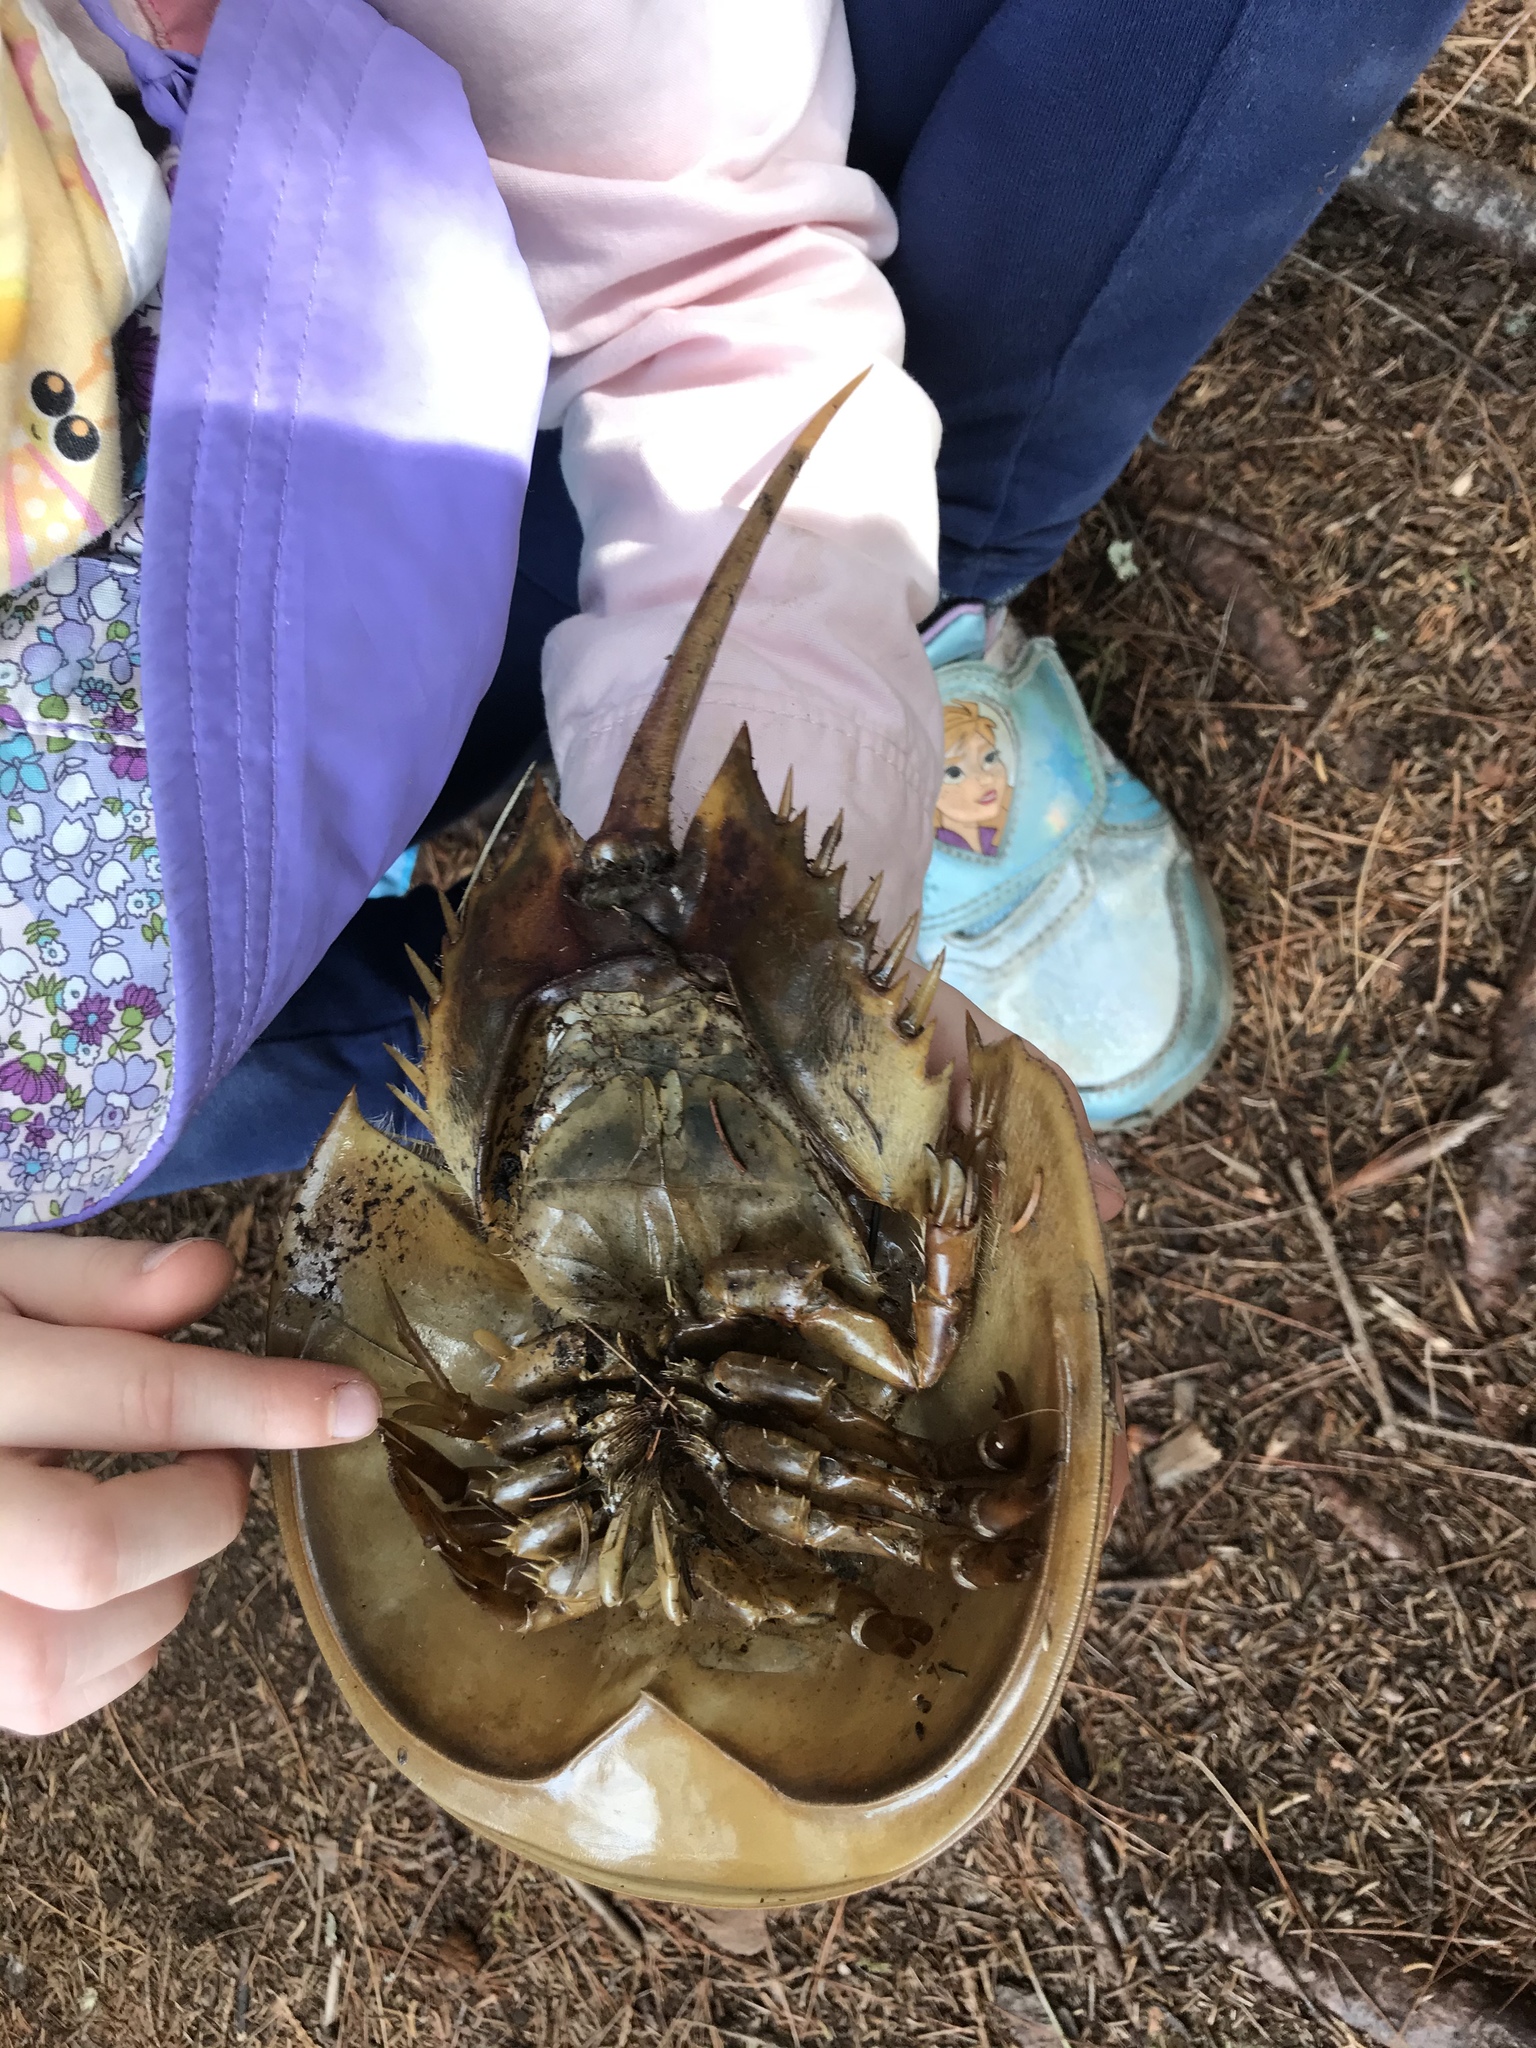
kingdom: Animalia
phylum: Arthropoda
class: Merostomata
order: Xiphosurida
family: Limulidae
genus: Limulus
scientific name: Limulus polyphemus
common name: Horseshoe crab
